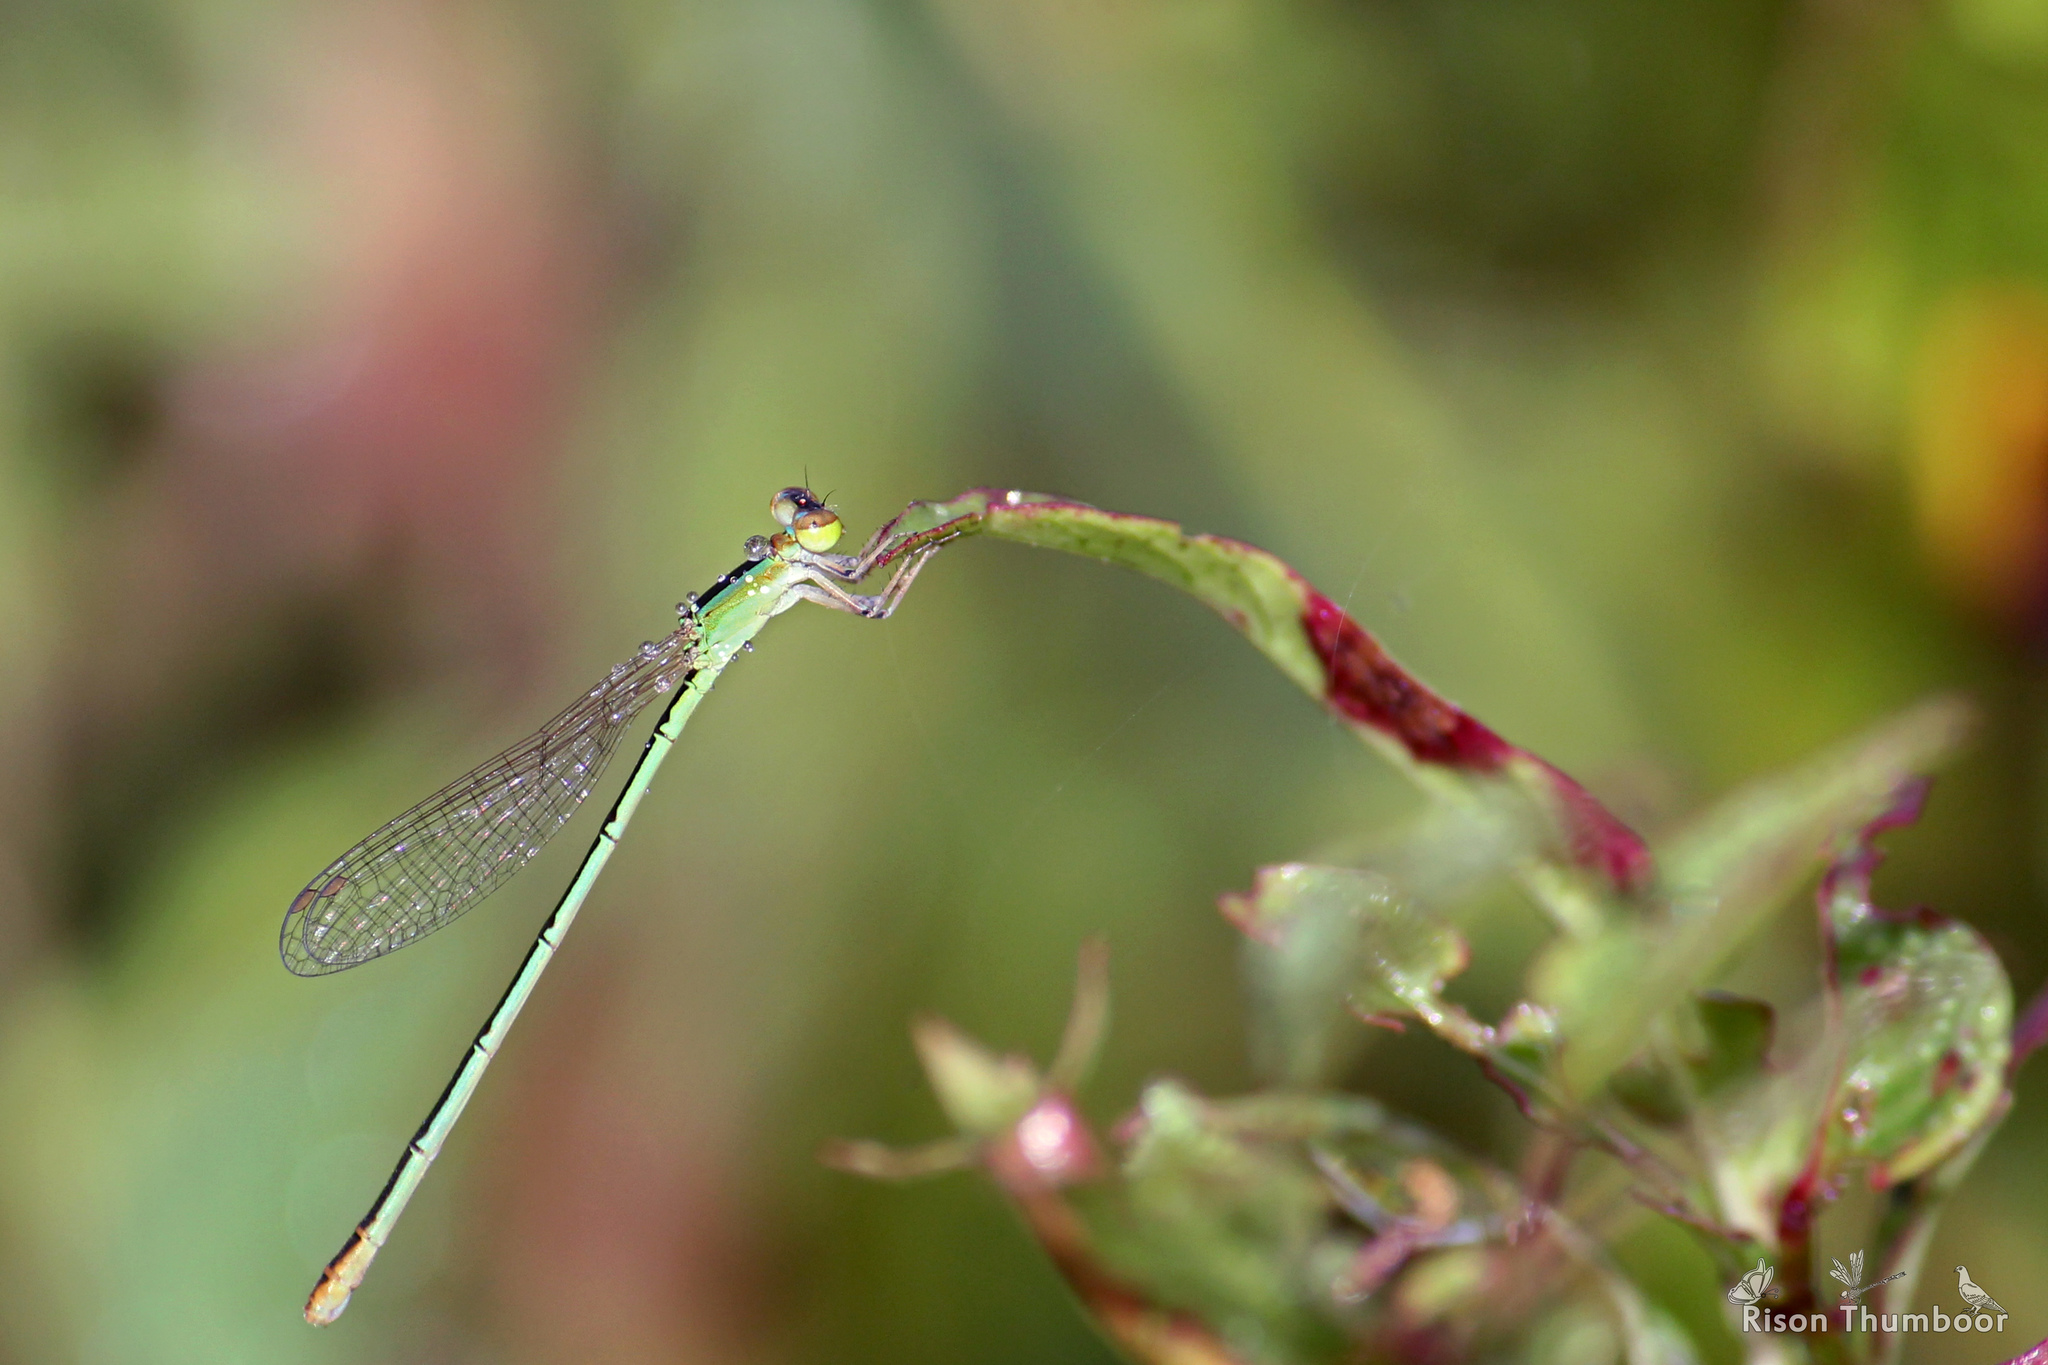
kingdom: Animalia
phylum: Arthropoda
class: Insecta
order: Odonata
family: Coenagrionidae
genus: Agriocnemis
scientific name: Agriocnemis pygmaea
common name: Pygmy wisp
